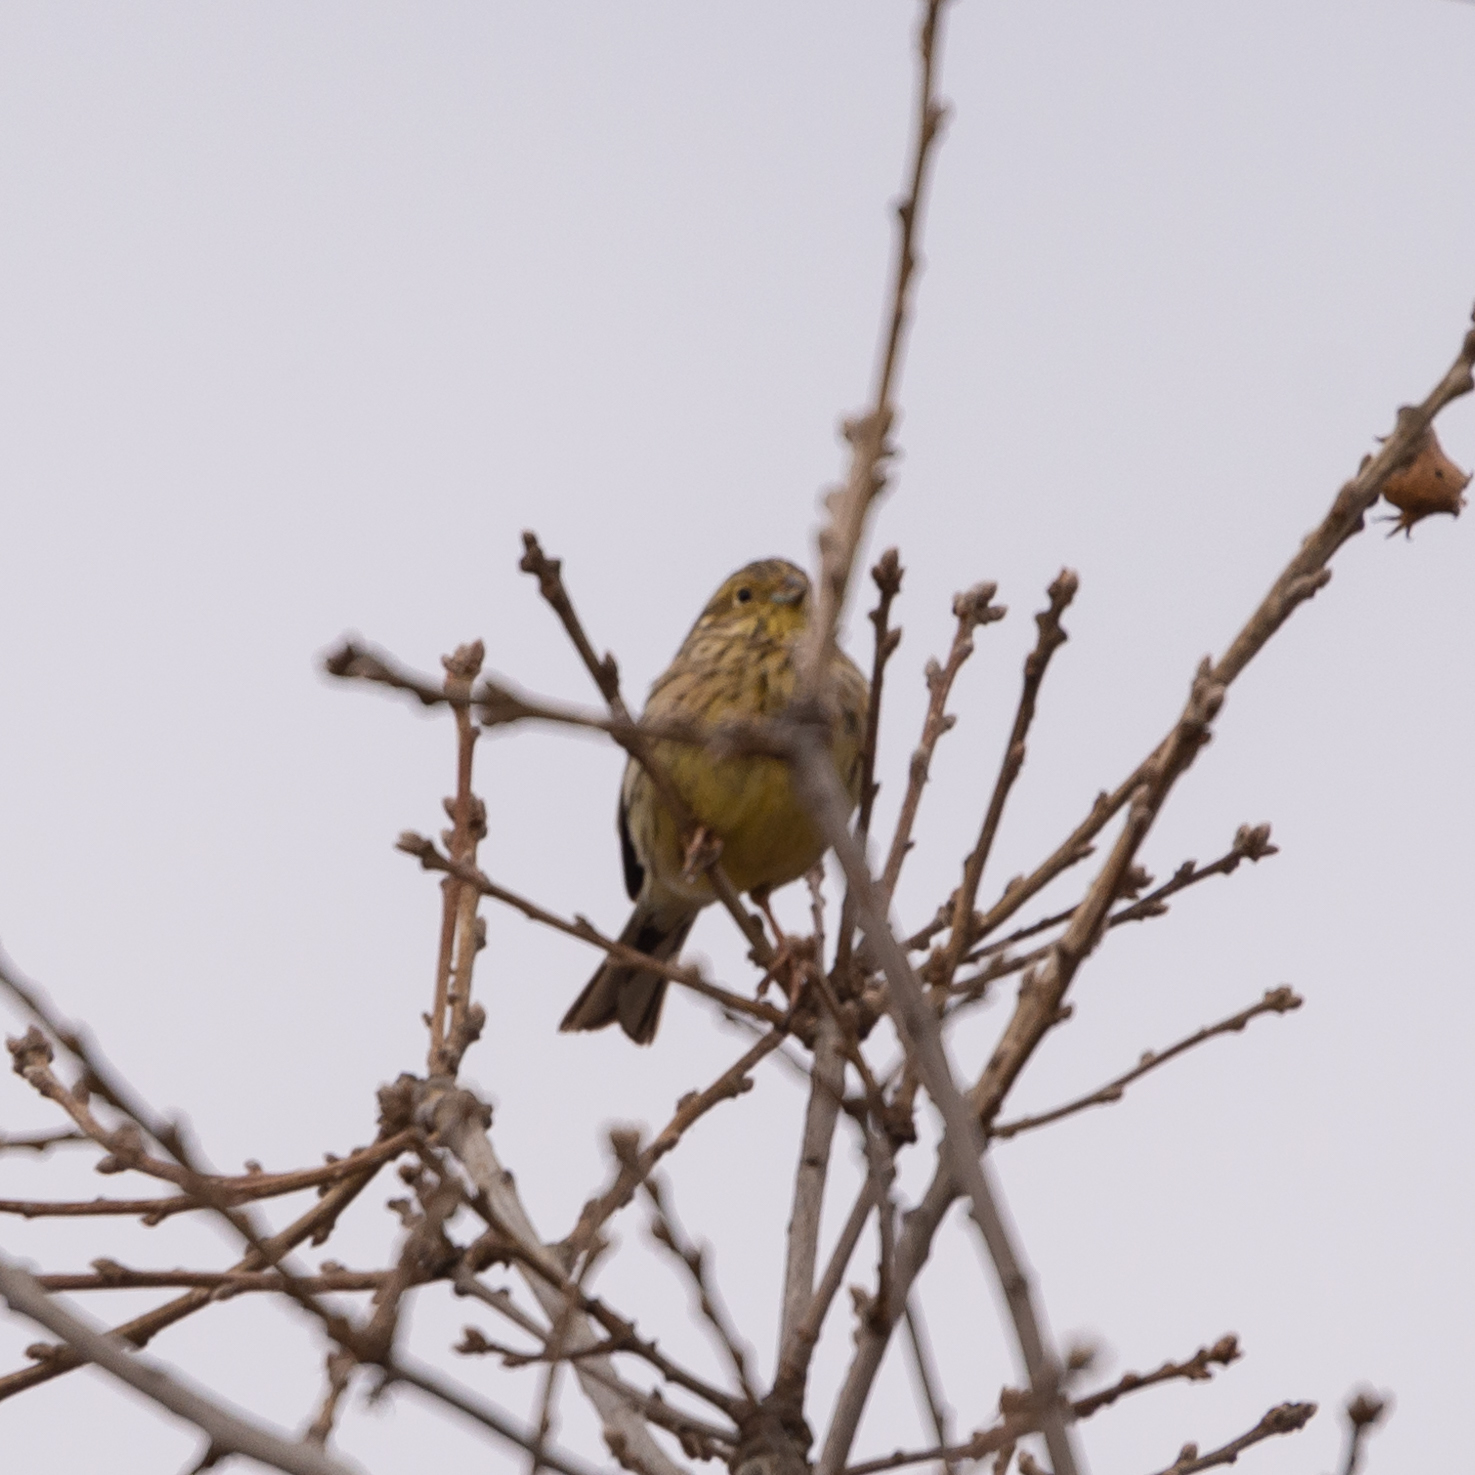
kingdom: Animalia
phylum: Chordata
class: Aves
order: Passeriformes
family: Emberizidae
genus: Emberiza
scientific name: Emberiza cirlus
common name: Cirl bunting
